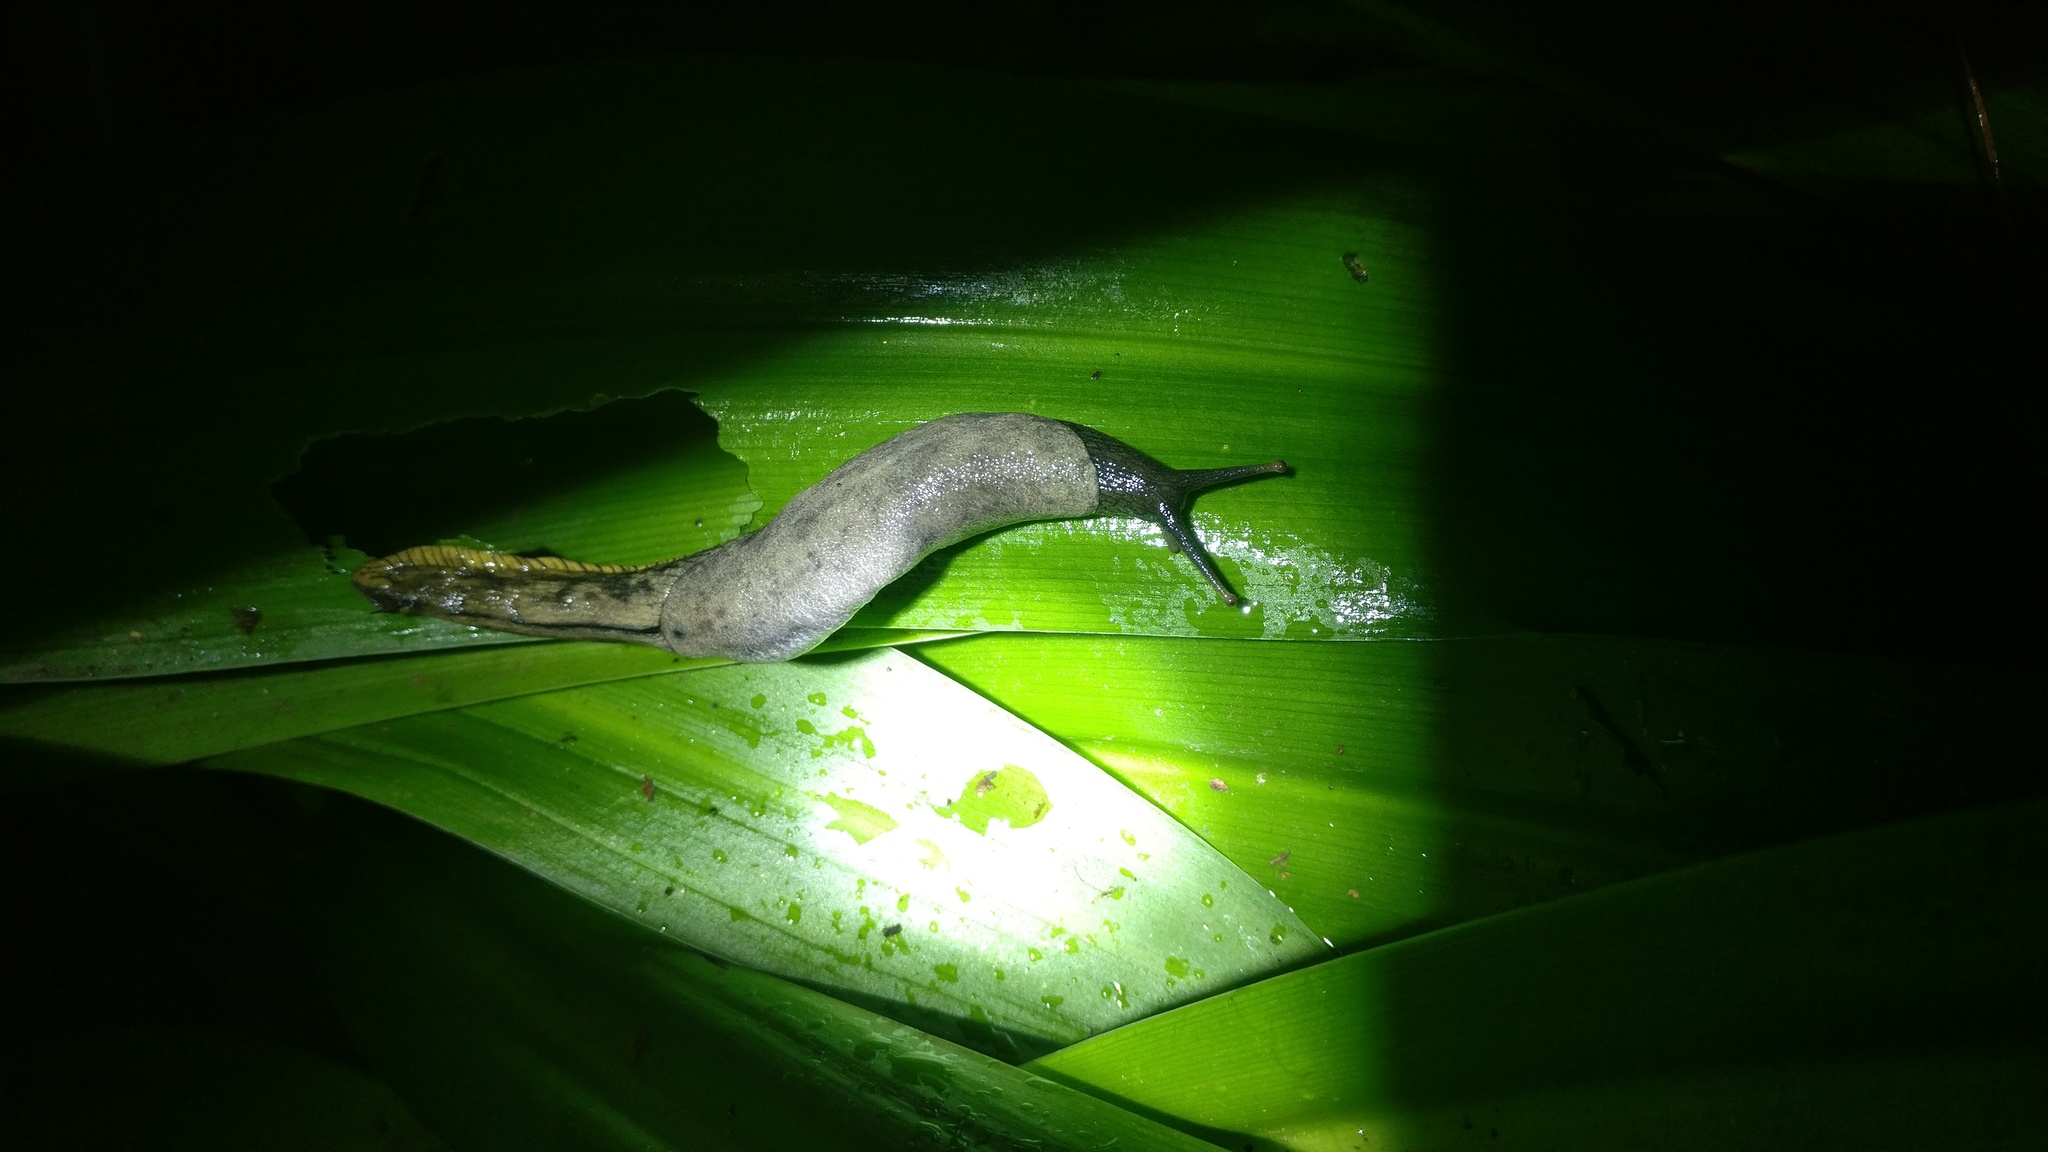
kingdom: Animalia
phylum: Mollusca
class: Gastropoda
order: Stylommatophora
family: Ariophantidae
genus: Mariaella
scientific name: Mariaella beddomei
